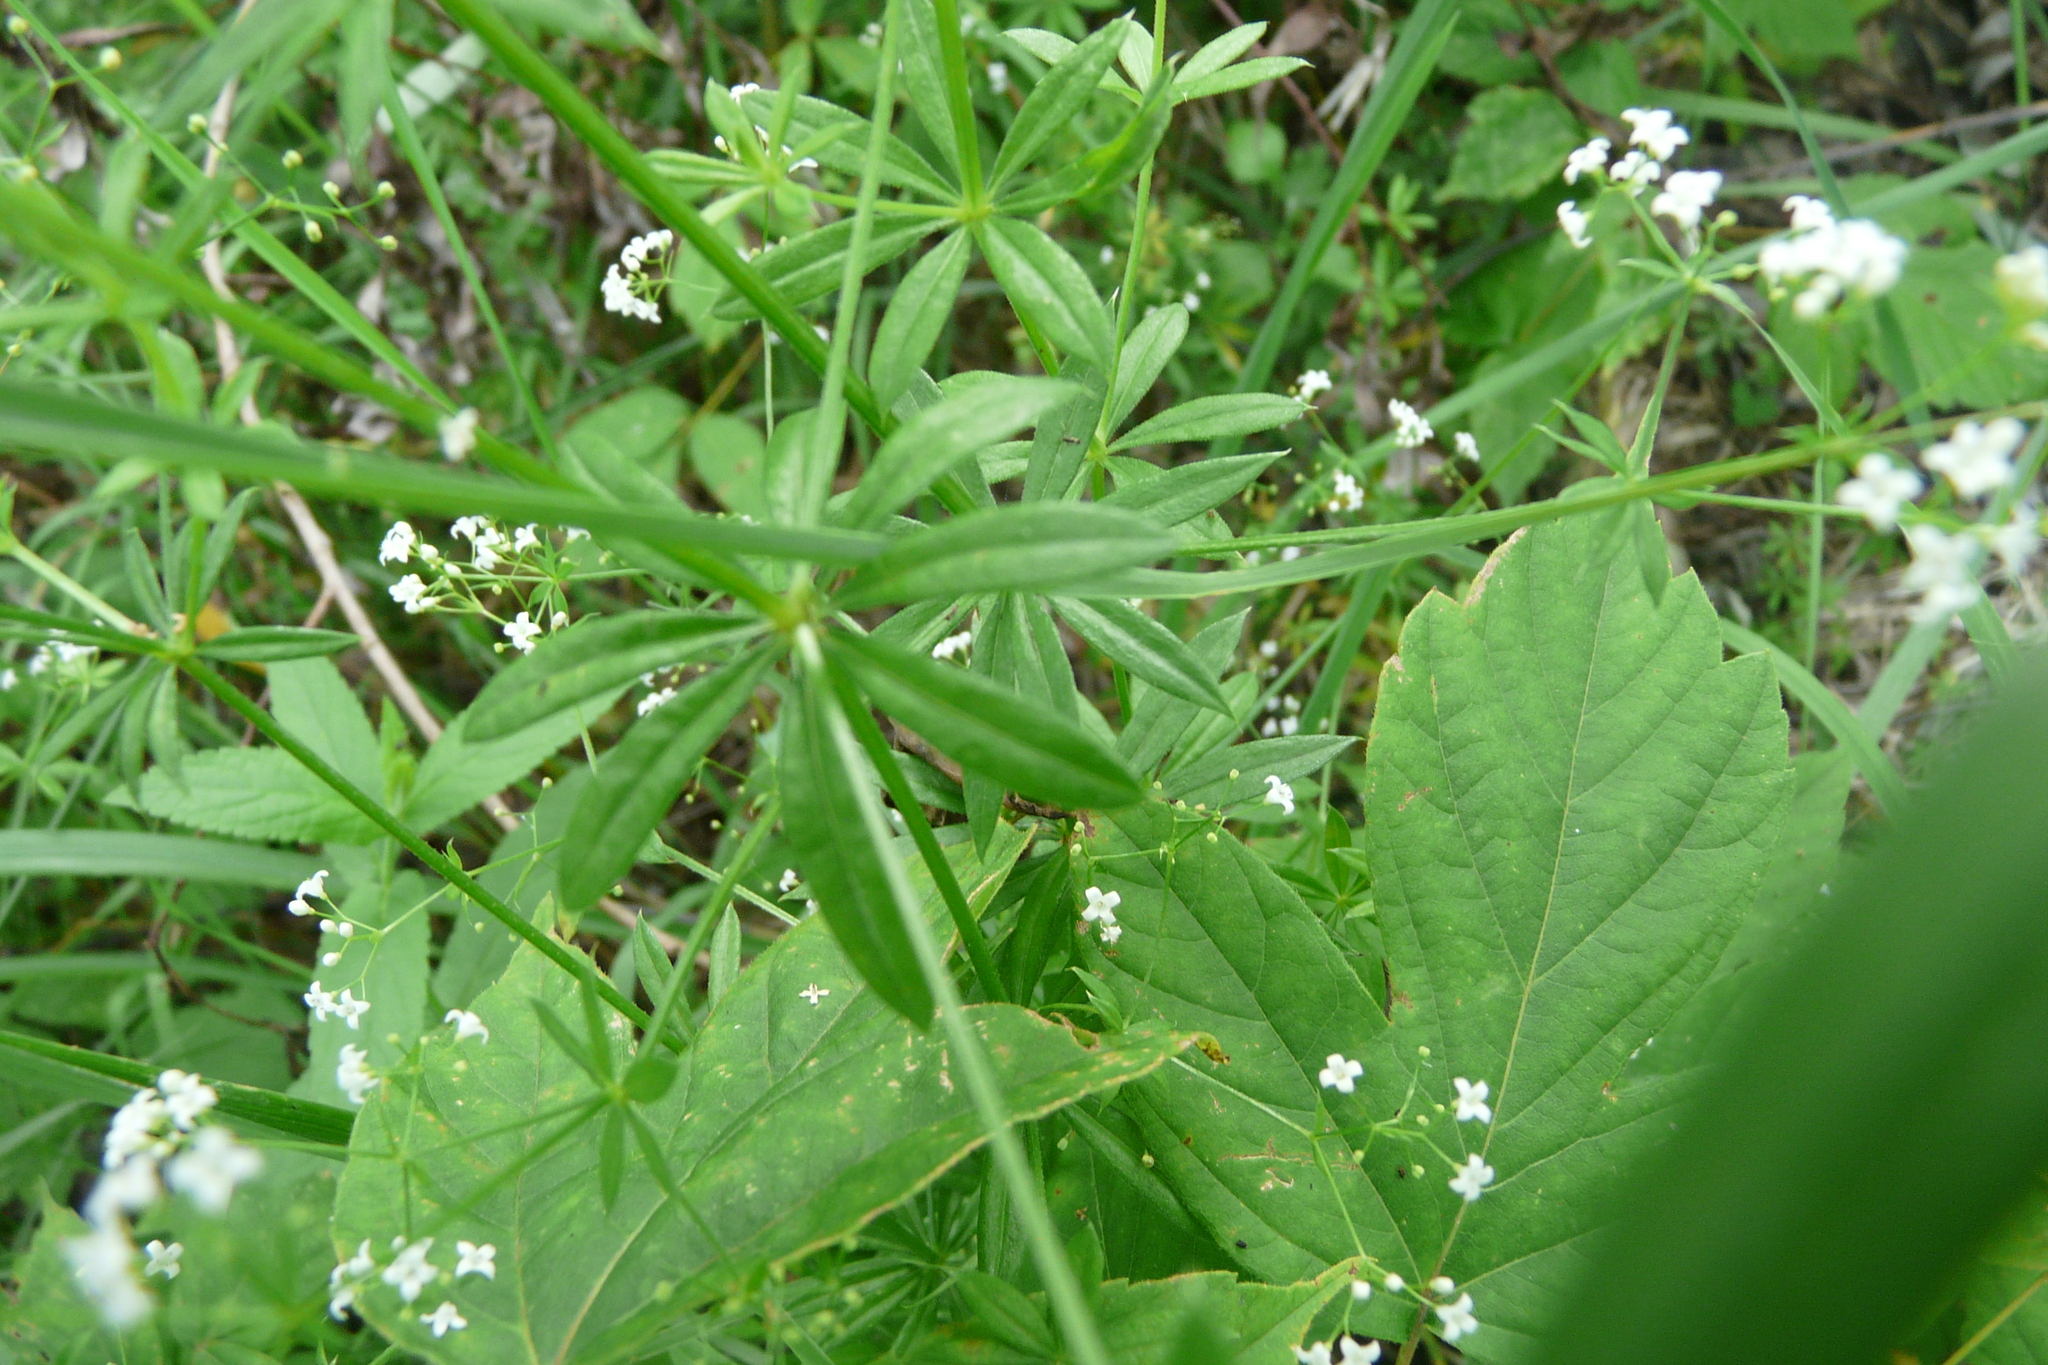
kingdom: Plantae
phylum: Tracheophyta
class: Magnoliopsida
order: Gentianales
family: Rubiaceae
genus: Galium
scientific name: Galium rivale
